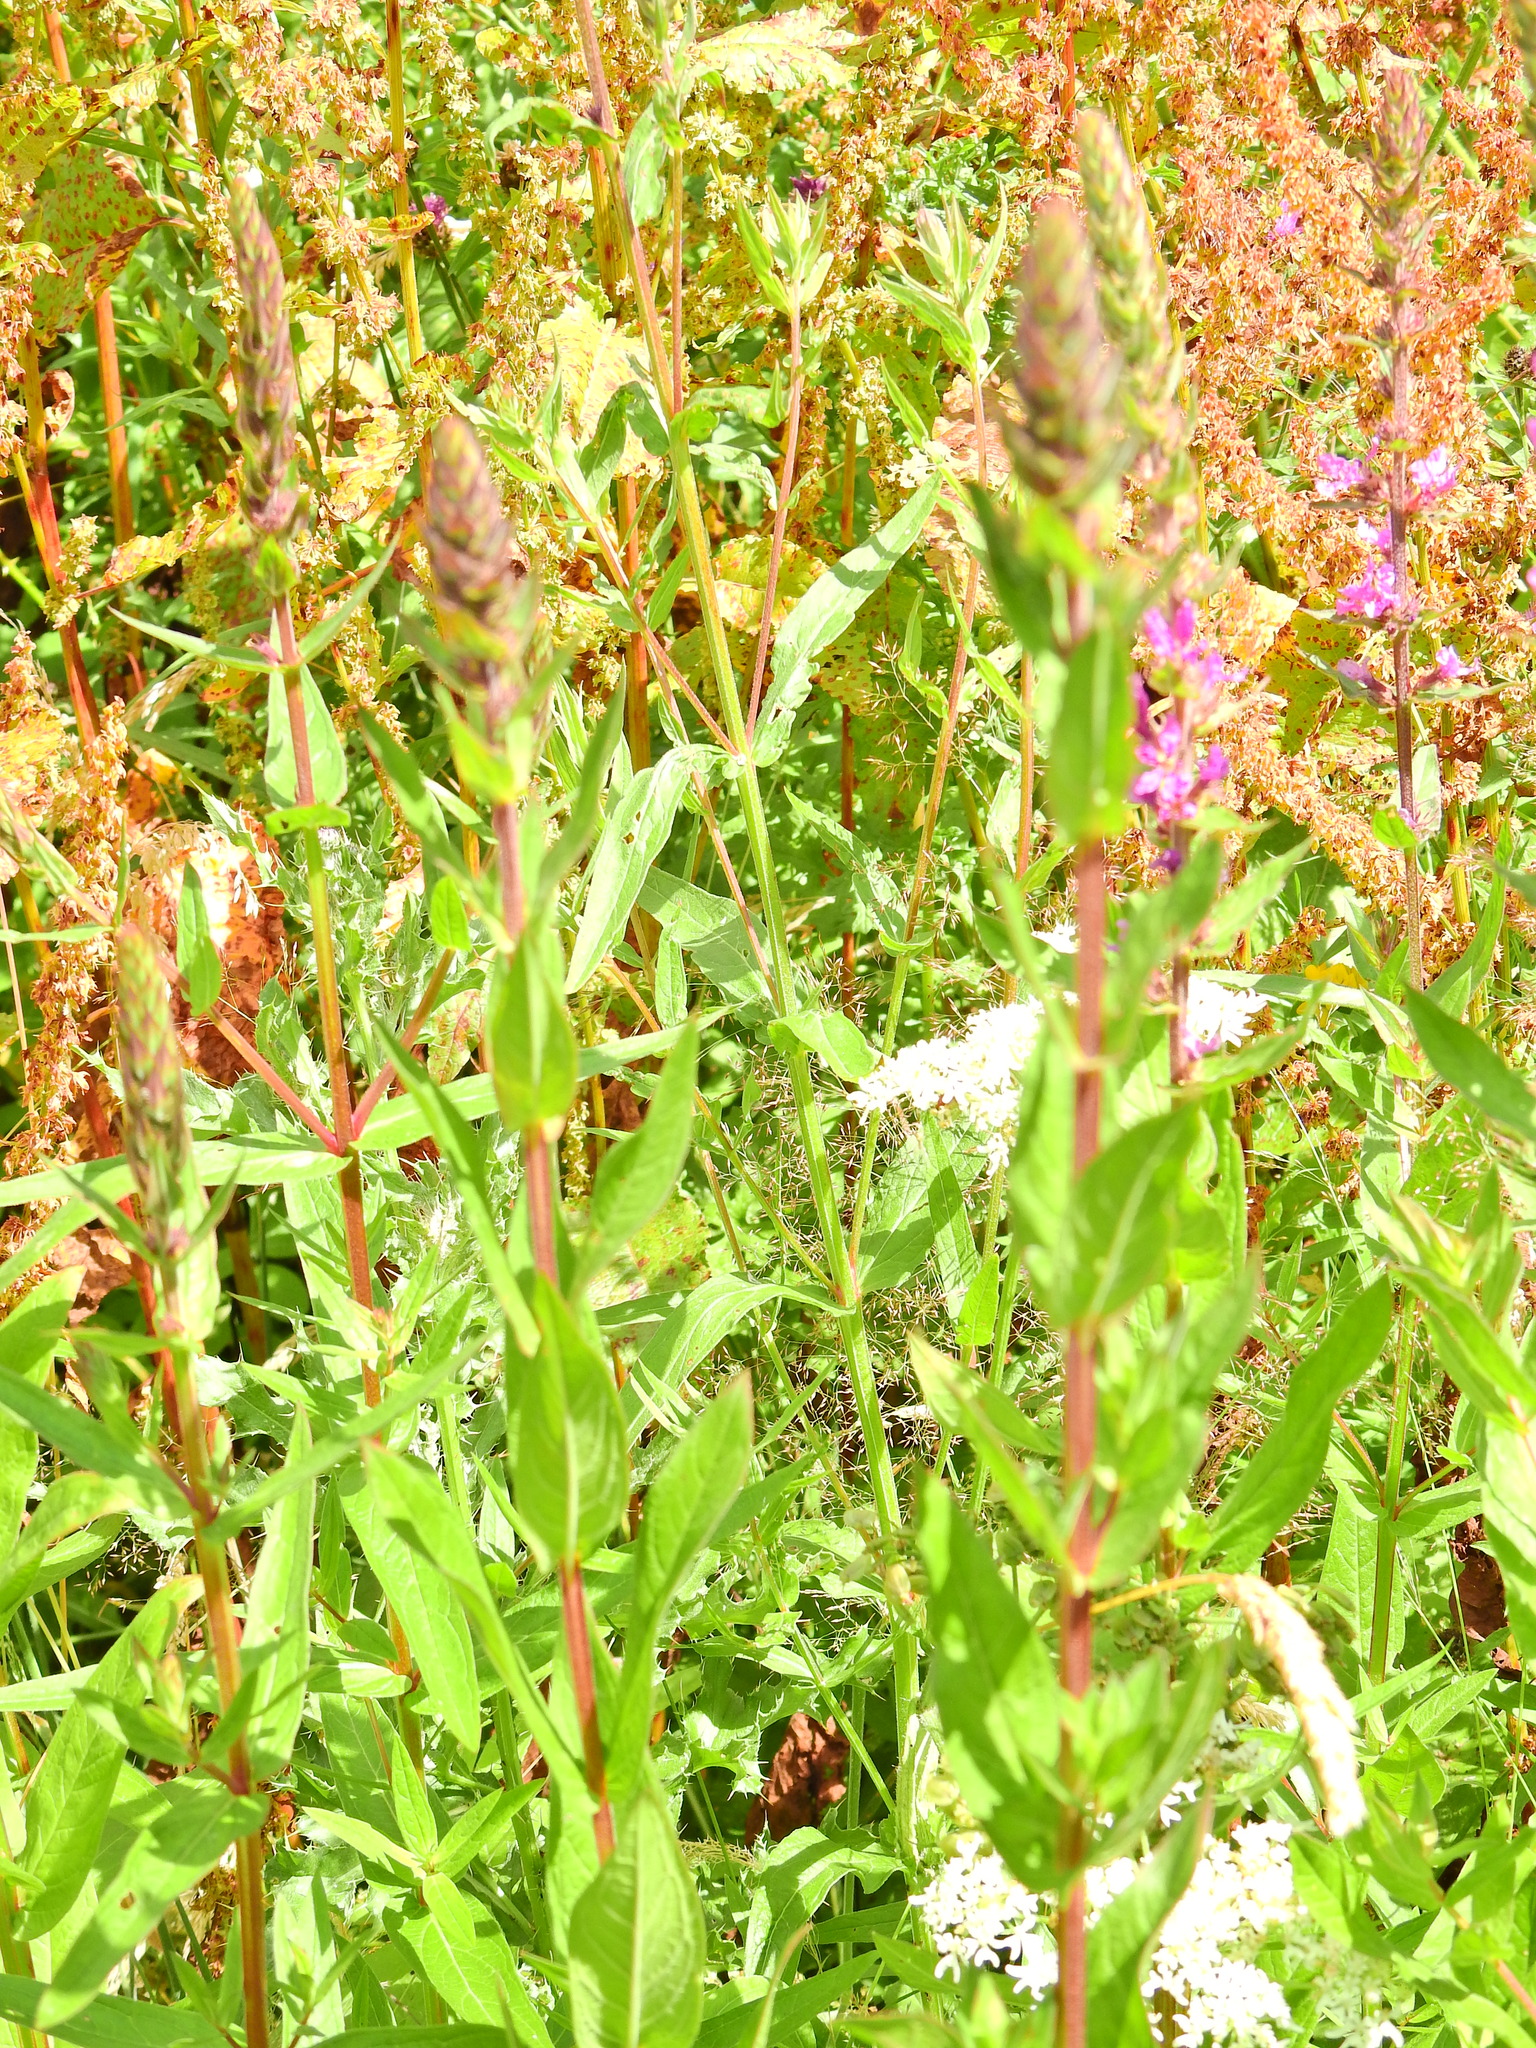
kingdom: Plantae
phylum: Tracheophyta
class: Magnoliopsida
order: Myrtales
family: Lythraceae
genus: Lythrum
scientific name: Lythrum salicaria
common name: Purple loosestrife
